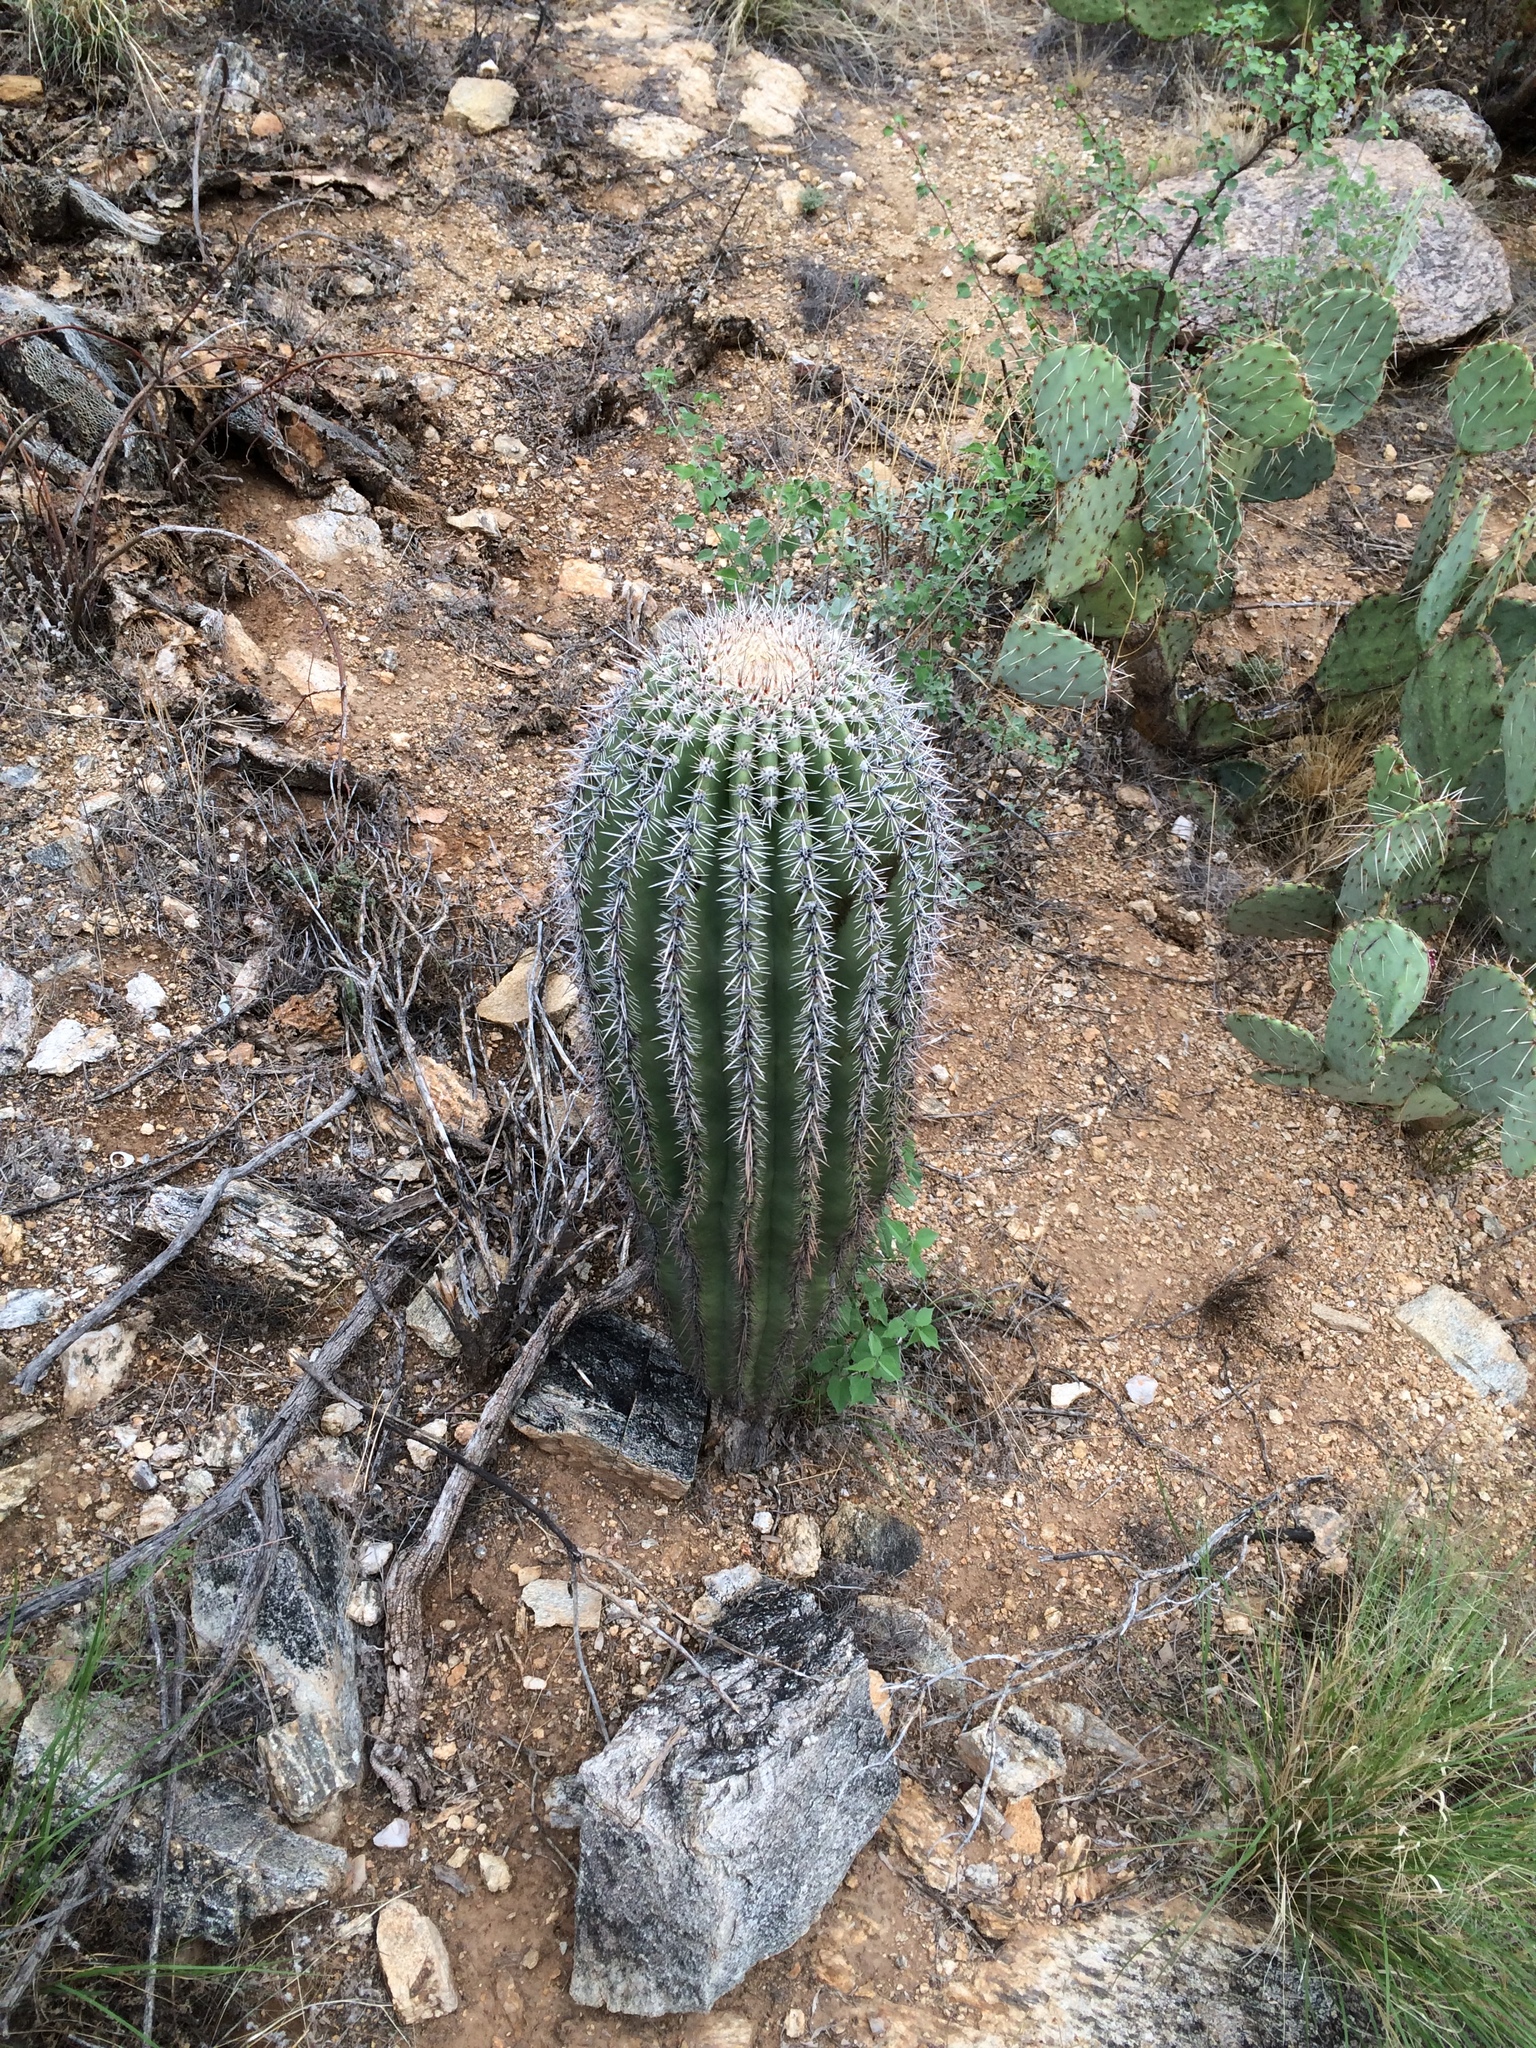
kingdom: Plantae
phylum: Tracheophyta
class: Magnoliopsida
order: Caryophyllales
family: Cactaceae
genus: Carnegiea
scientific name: Carnegiea gigantea
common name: Saguaro
